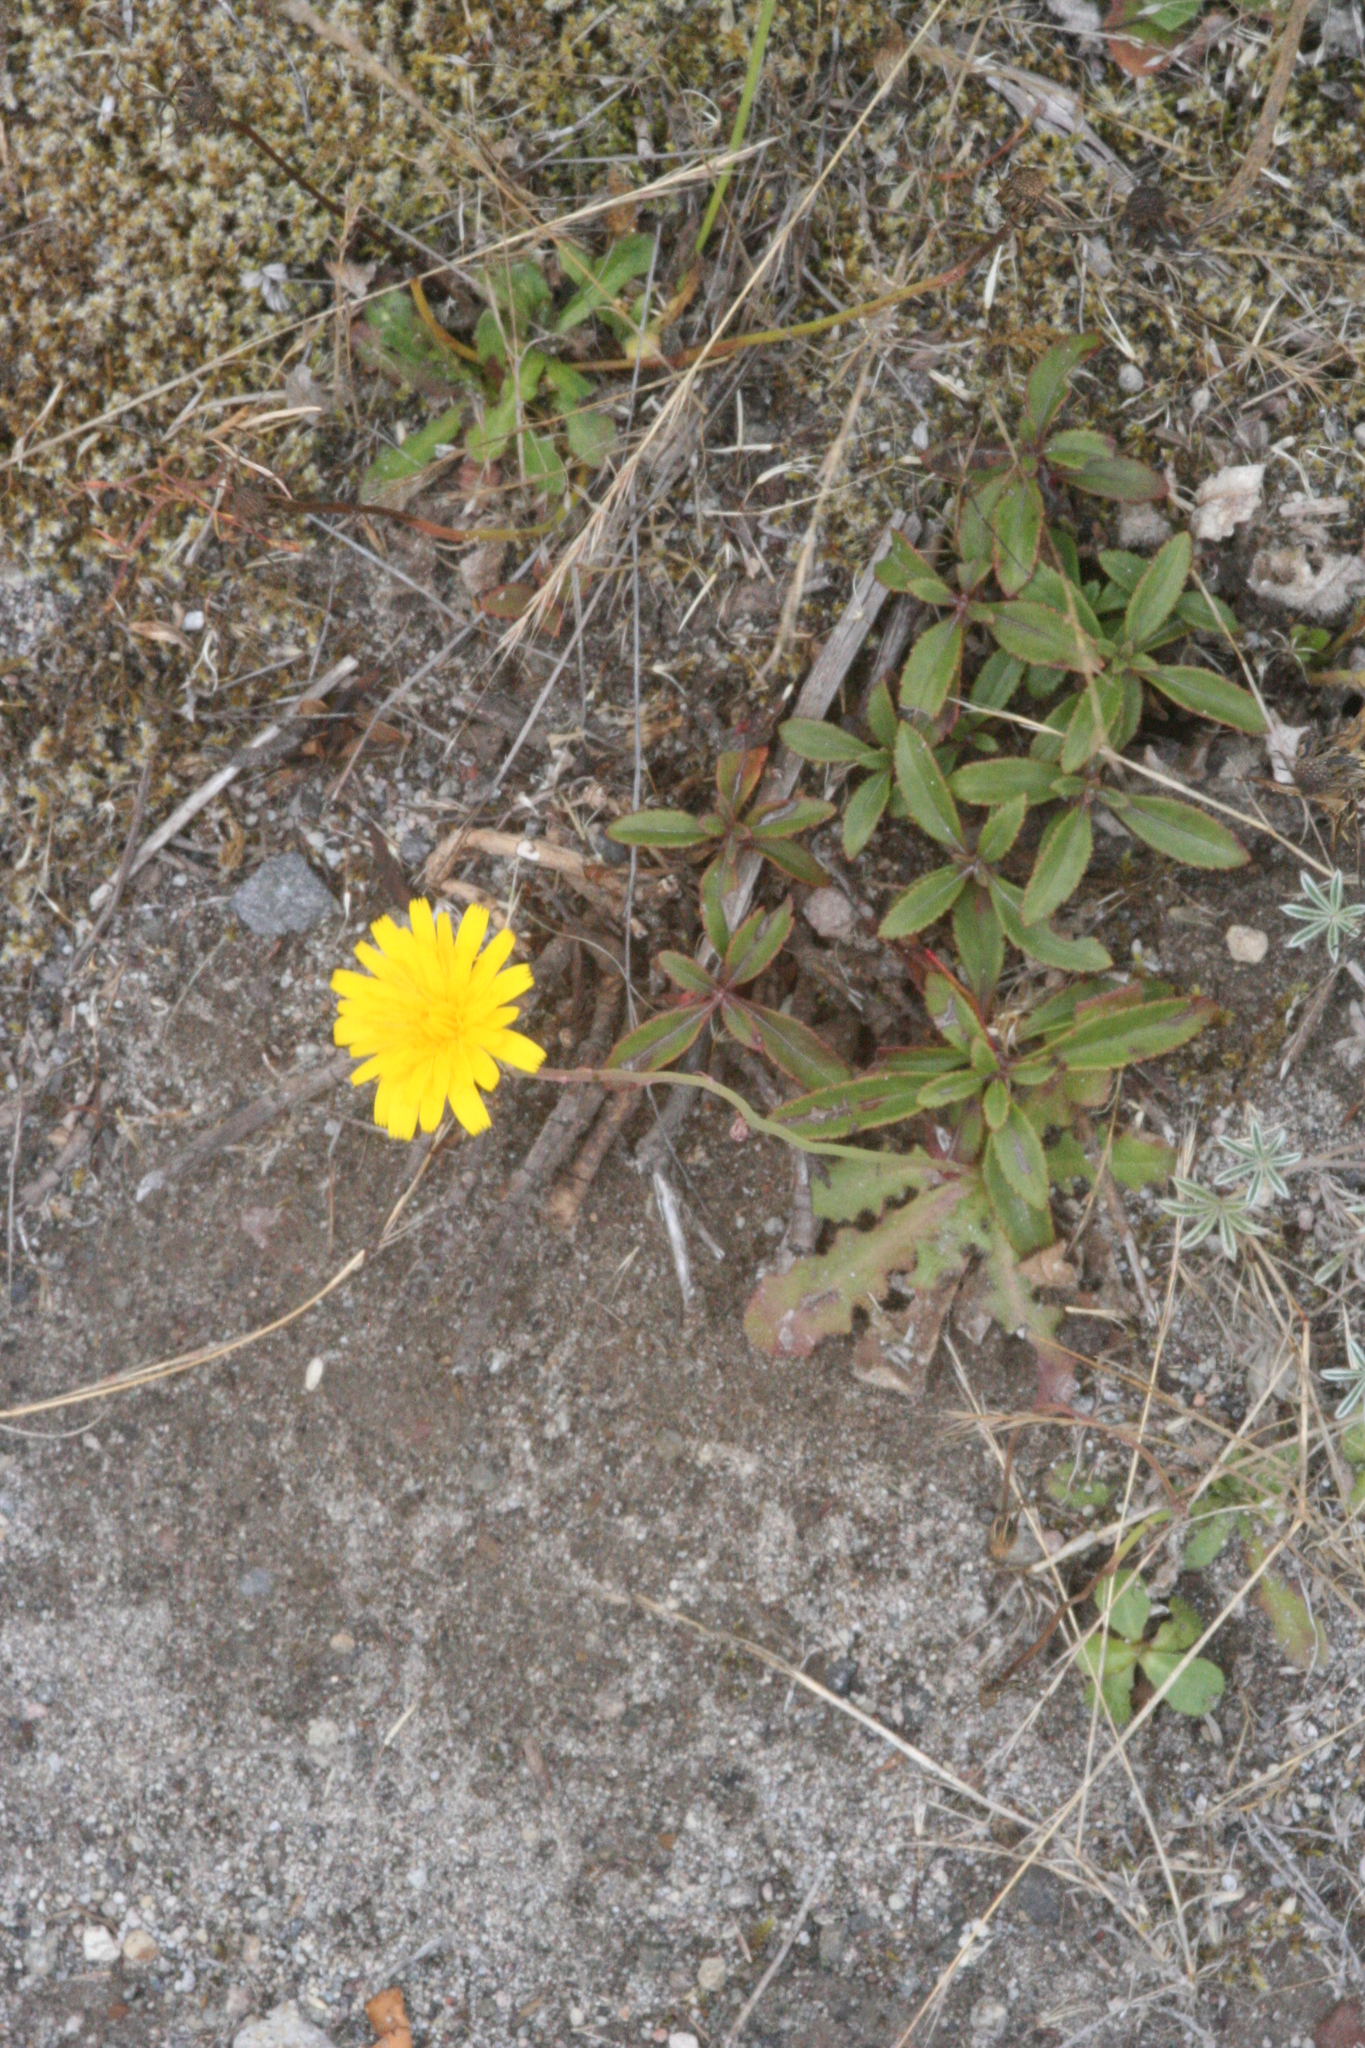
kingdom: Plantae
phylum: Tracheophyta
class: Magnoliopsida
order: Asterales
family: Asteraceae
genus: Hieracium
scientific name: Hieracium triste
